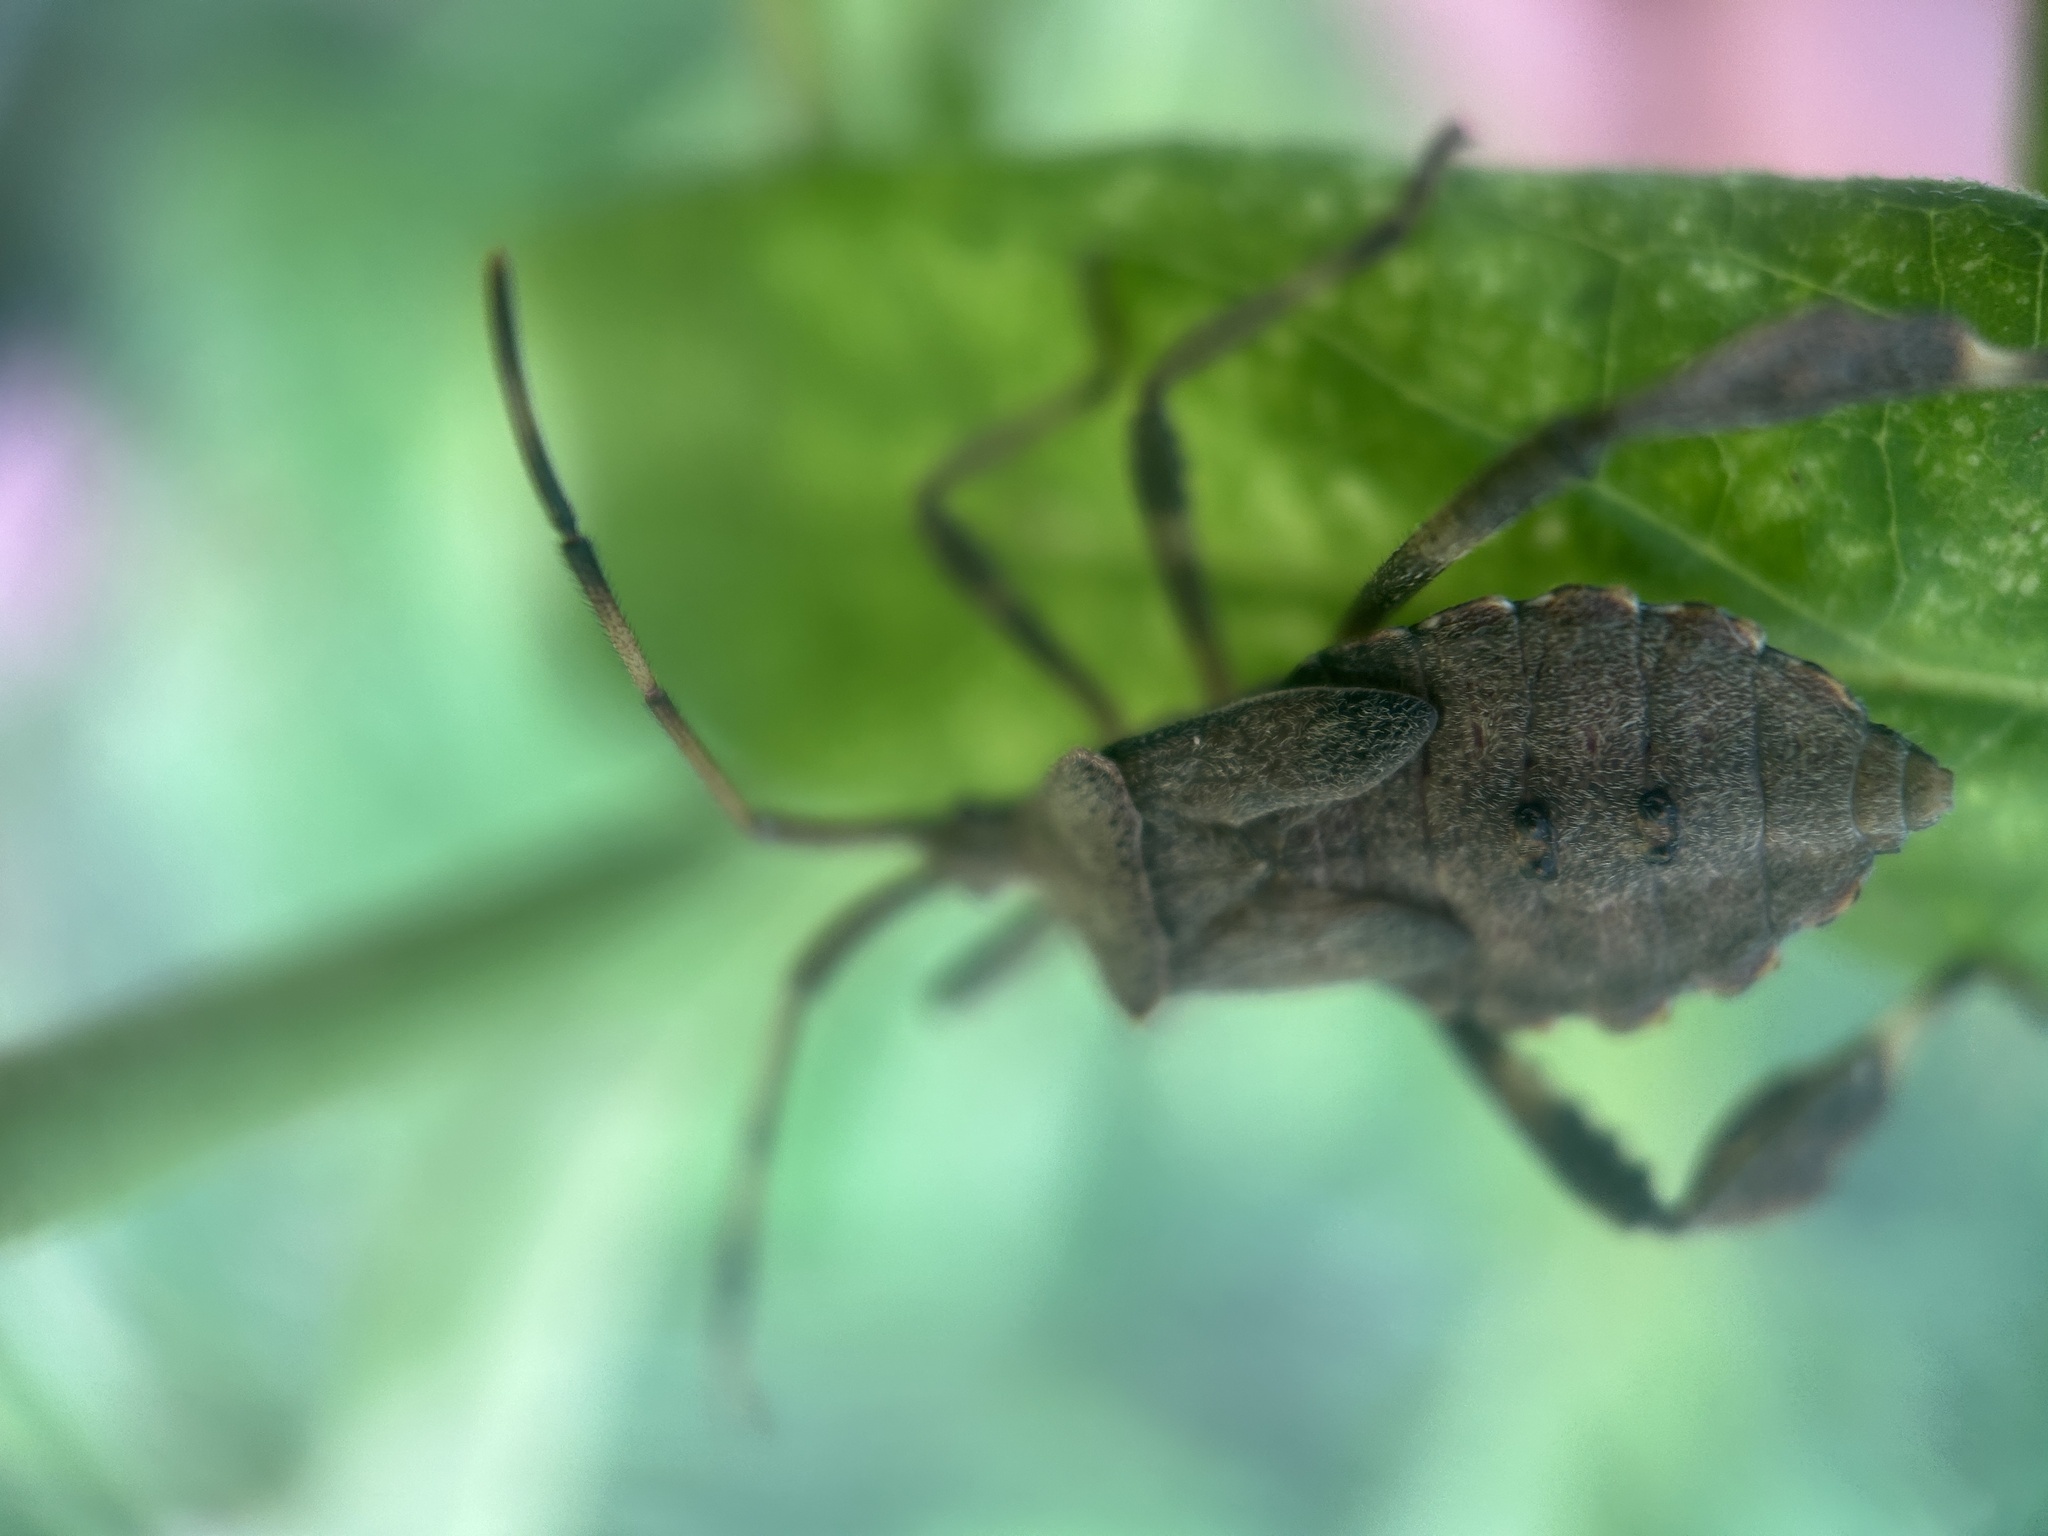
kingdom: Animalia
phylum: Arthropoda
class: Insecta
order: Hemiptera
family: Coreidae
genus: Acanthocephala
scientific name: Acanthocephala terminalis
